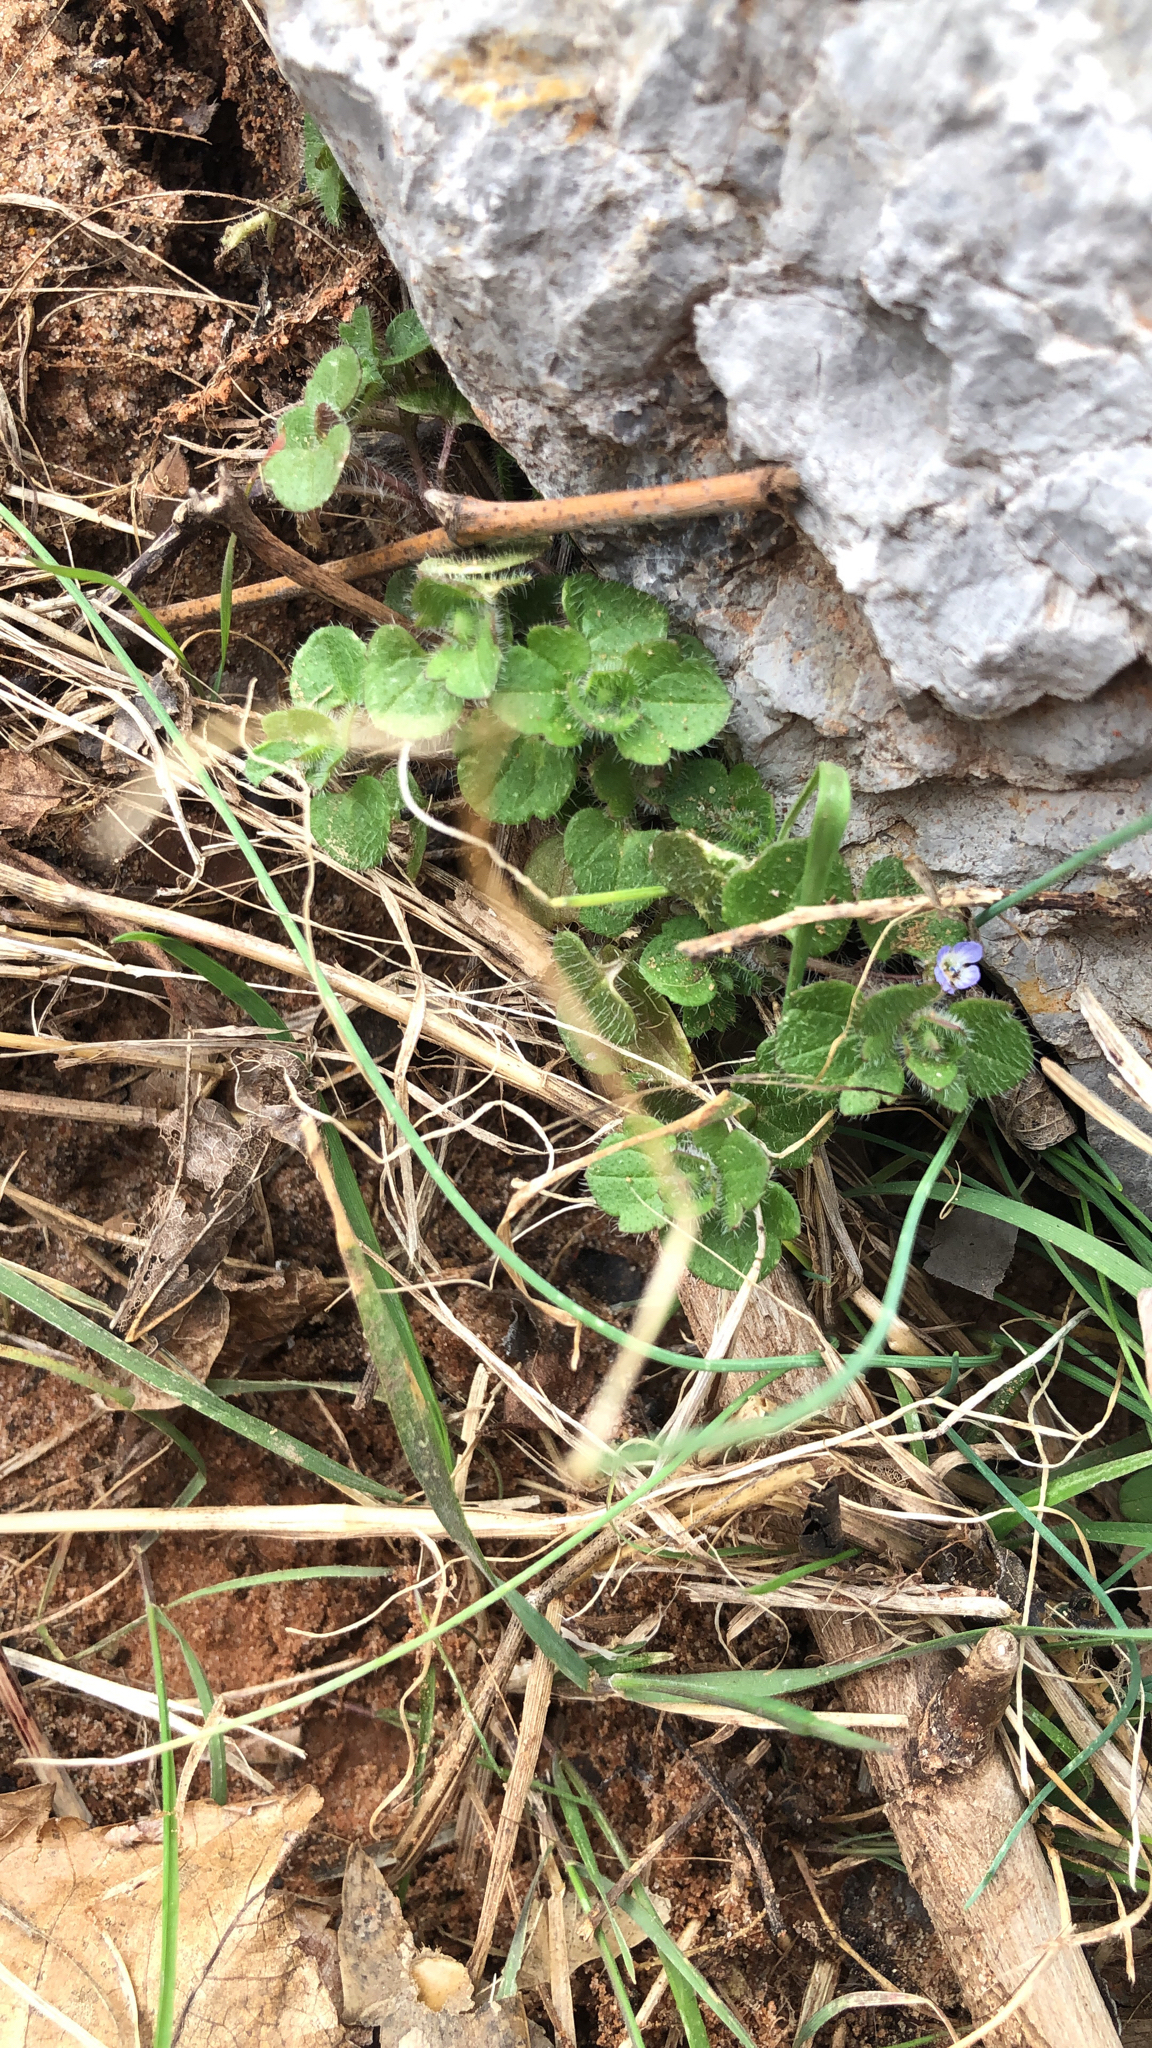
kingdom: Plantae
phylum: Tracheophyta
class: Magnoliopsida
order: Lamiales
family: Plantaginaceae
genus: Veronica
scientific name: Veronica hederifolia
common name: Ivy-leaved speedwell
